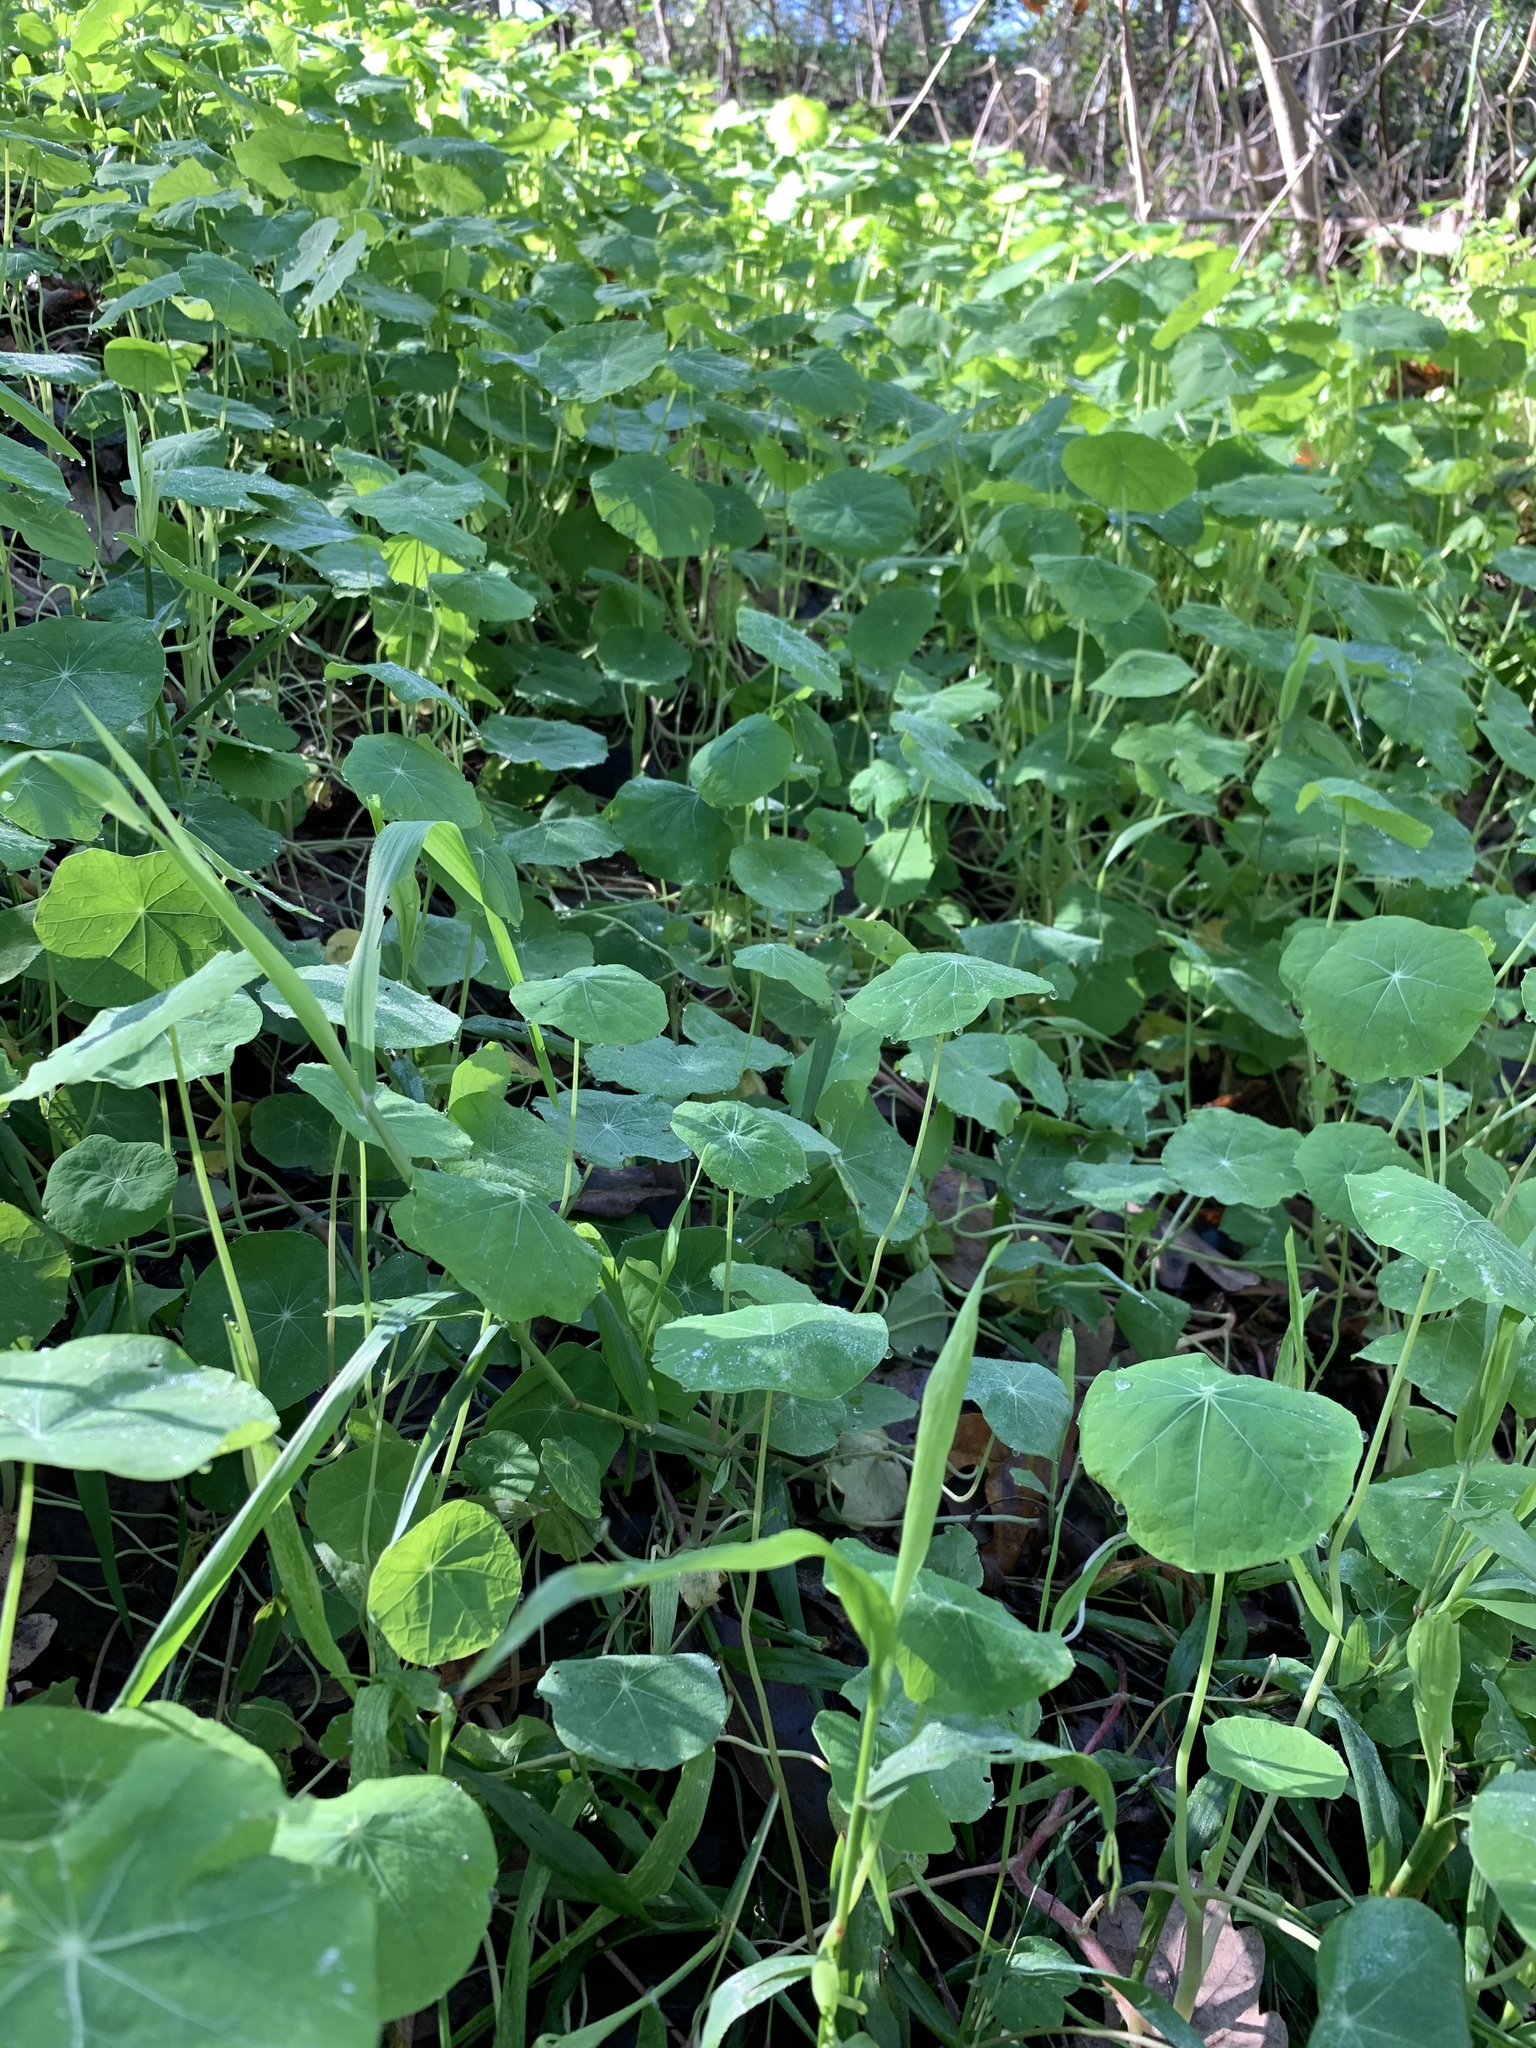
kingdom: Plantae
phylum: Tracheophyta
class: Magnoliopsida
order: Brassicales
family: Tropaeolaceae
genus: Tropaeolum
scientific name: Tropaeolum majus
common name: Nasturtium
